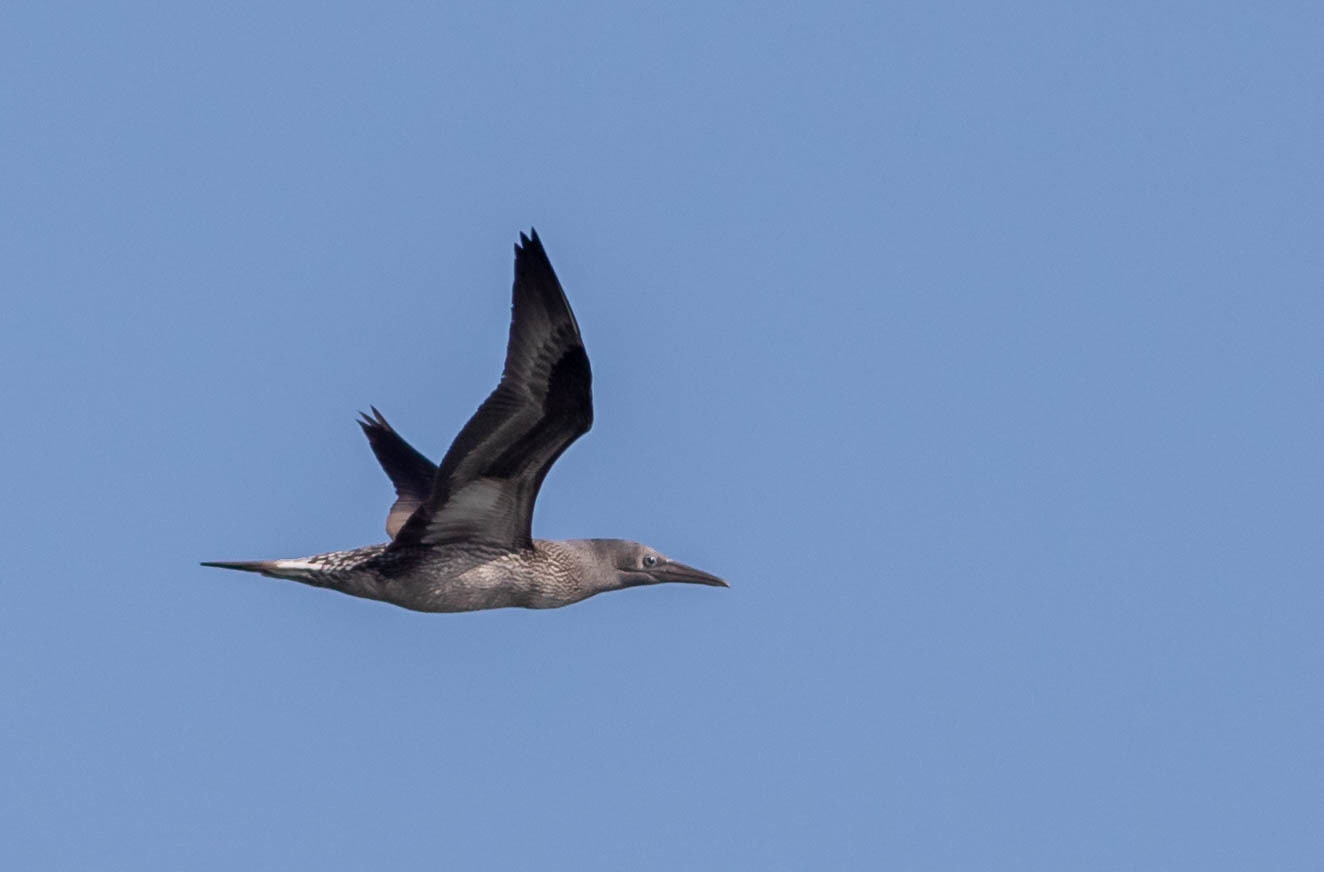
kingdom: Animalia
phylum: Chordata
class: Aves
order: Suliformes
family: Sulidae
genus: Morus
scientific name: Morus bassanus
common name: Northern gannet
